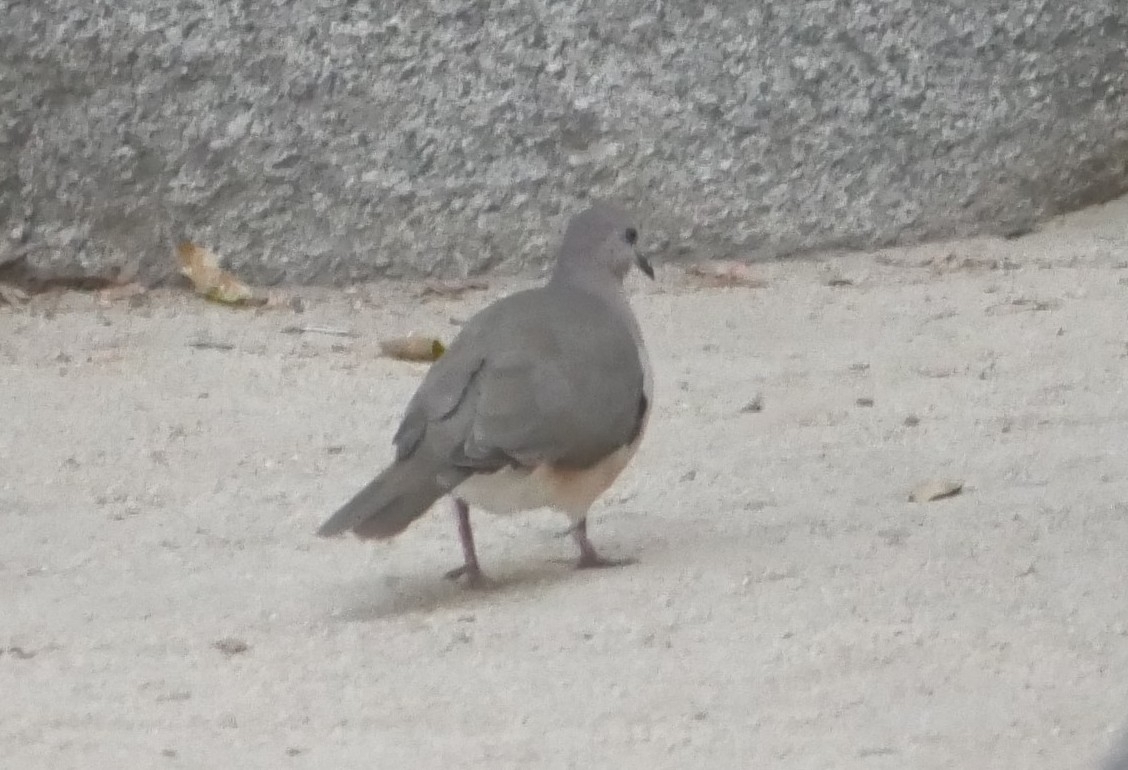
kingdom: Animalia
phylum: Chordata
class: Aves
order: Columbiformes
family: Columbidae
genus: Leptotila
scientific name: Leptotila verreauxi
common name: White-tipped dove
